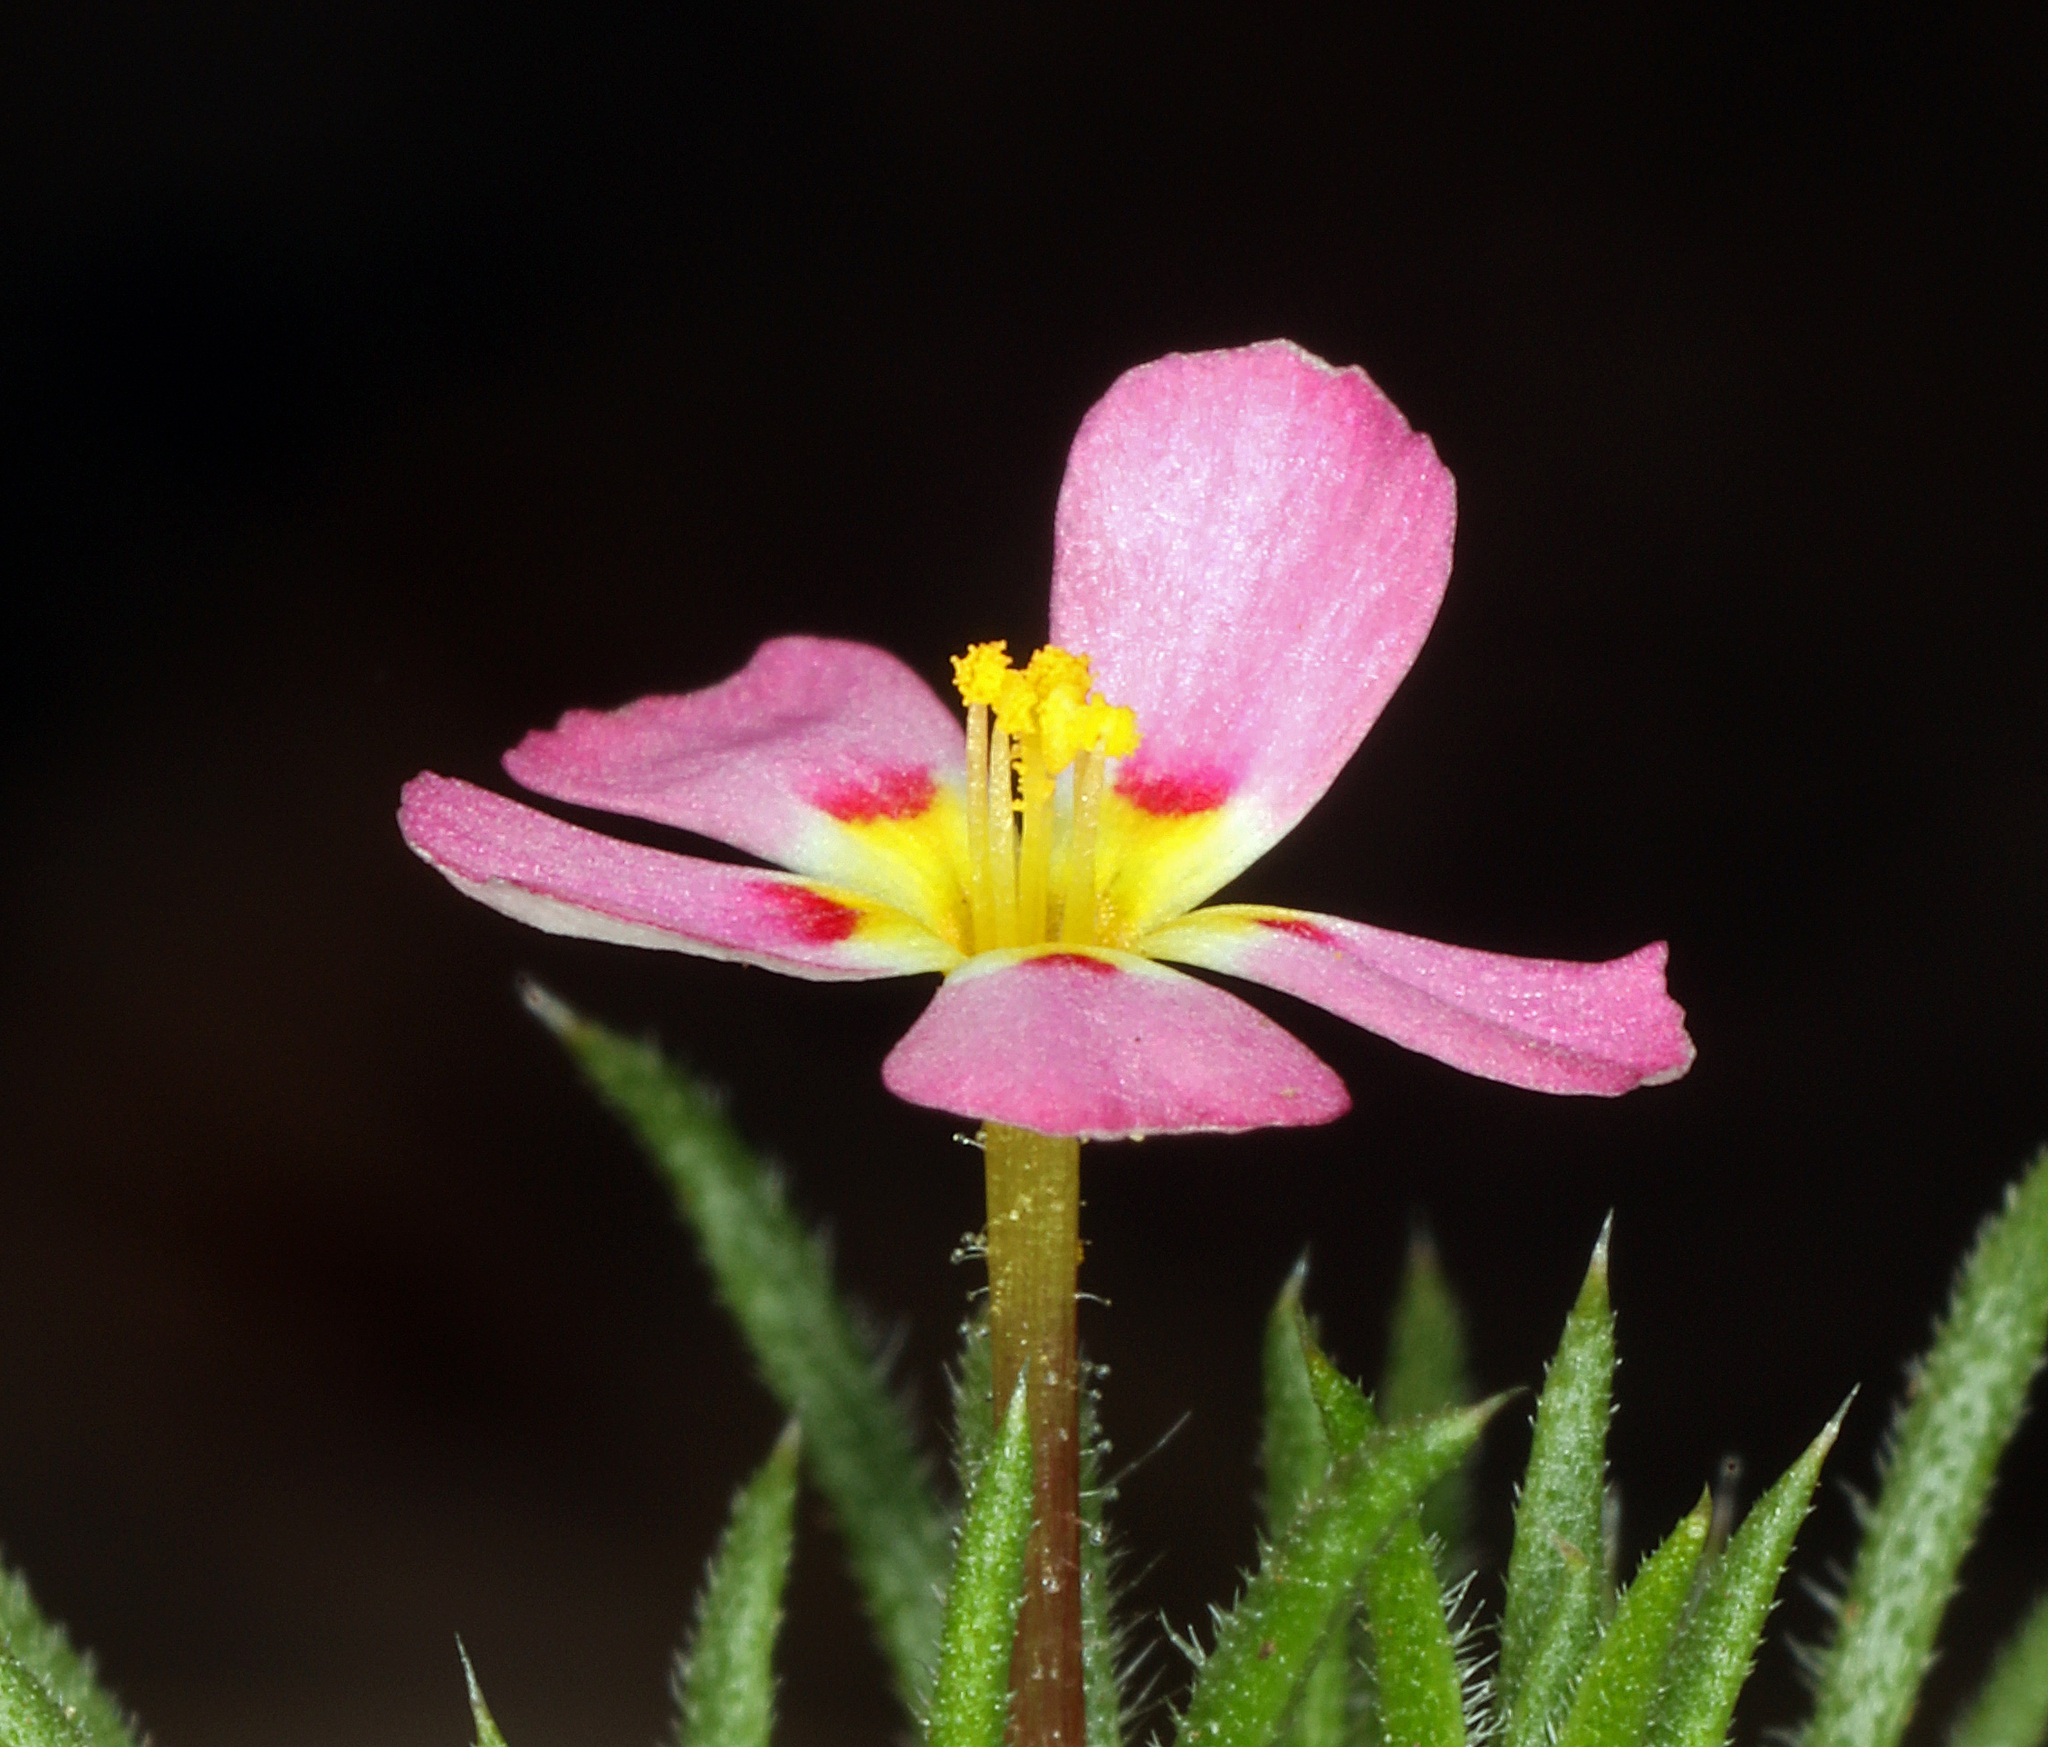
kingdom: Plantae
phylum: Tracheophyta
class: Magnoliopsida
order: Ericales
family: Polemoniaceae
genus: Leptosiphon
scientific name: Leptosiphon ciliatus
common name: Whiskerbrush
